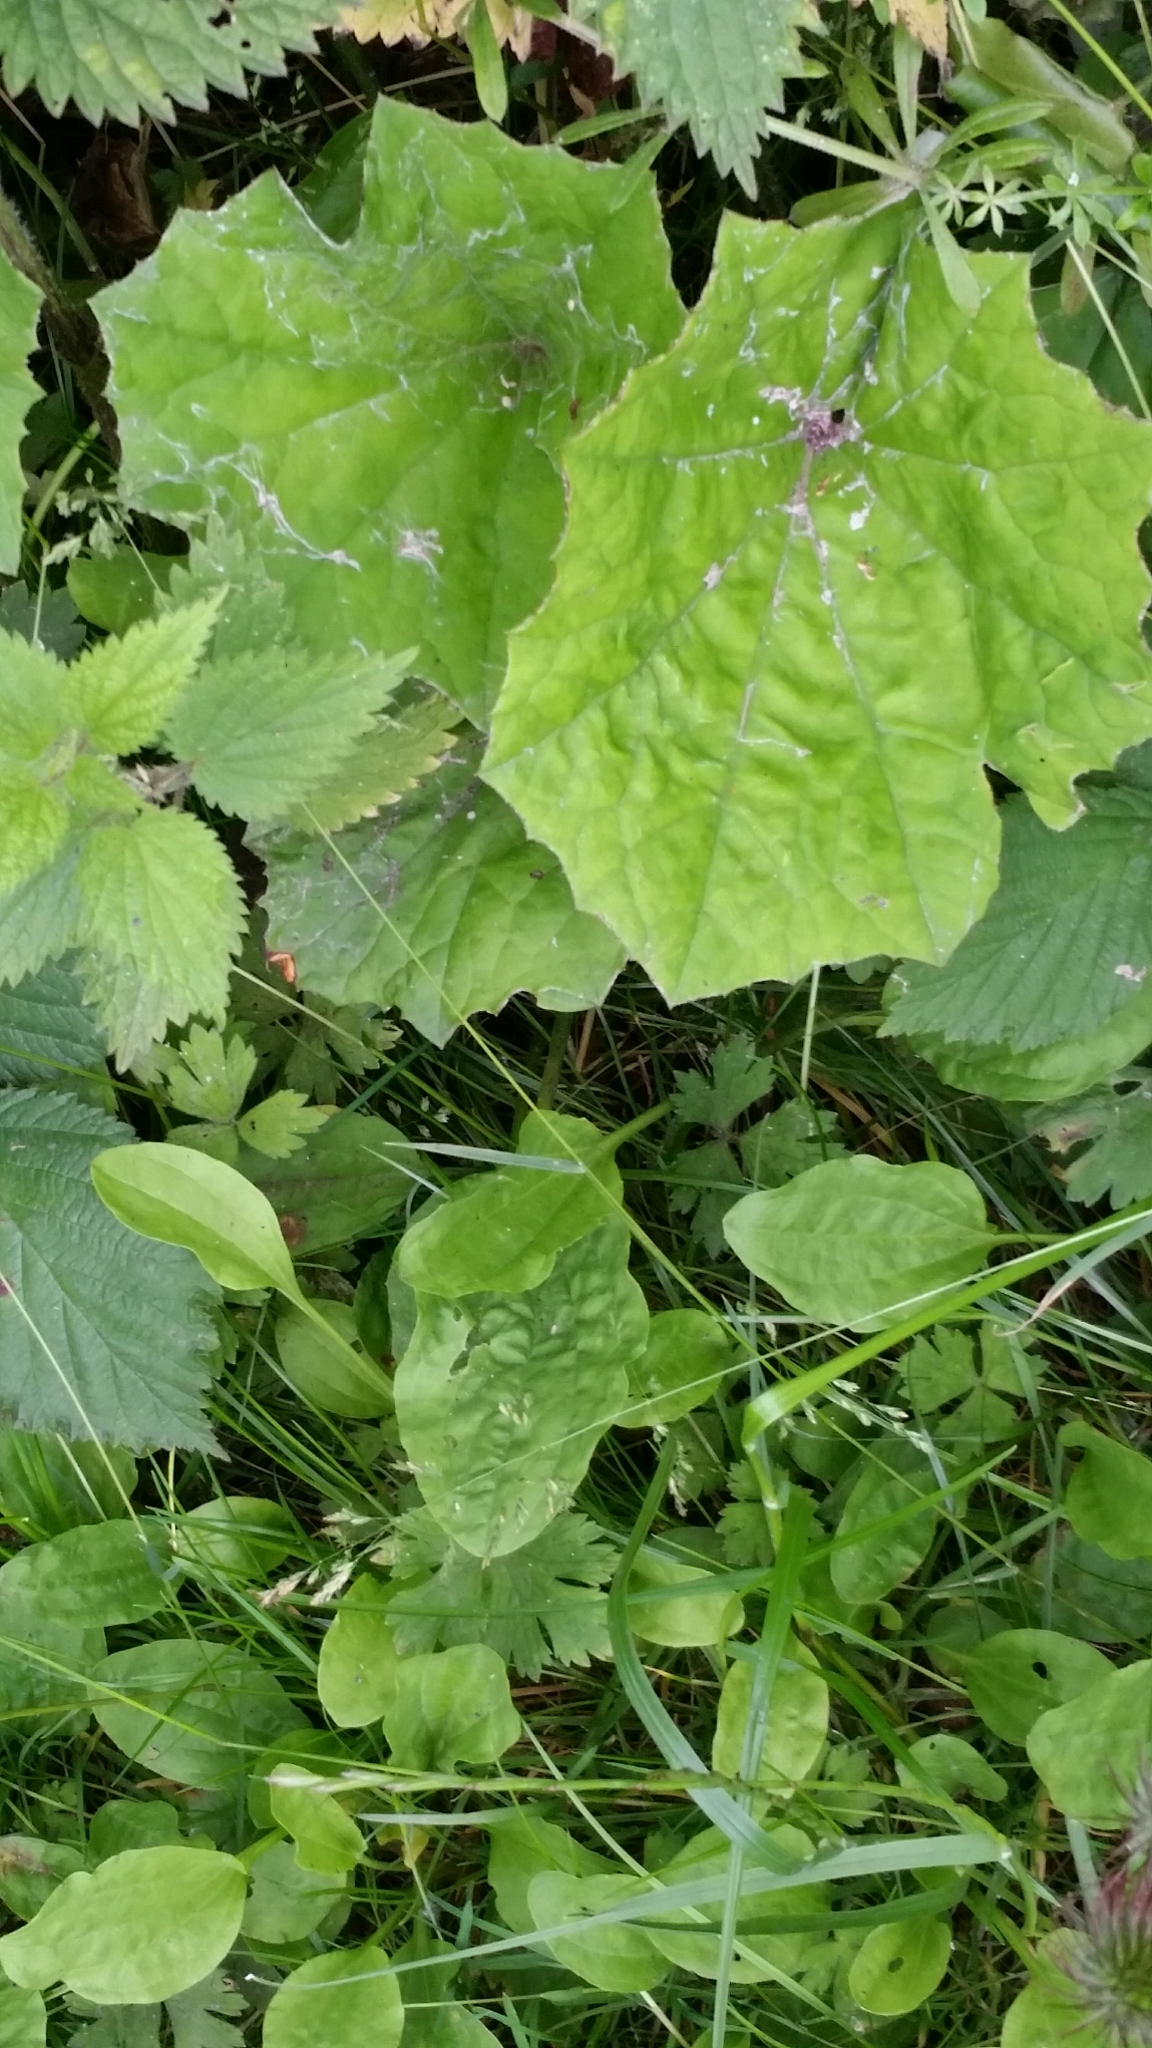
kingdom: Plantae
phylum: Tracheophyta
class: Magnoliopsida
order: Asterales
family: Asteraceae
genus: Tussilago
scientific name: Tussilago farfara
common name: Coltsfoot
